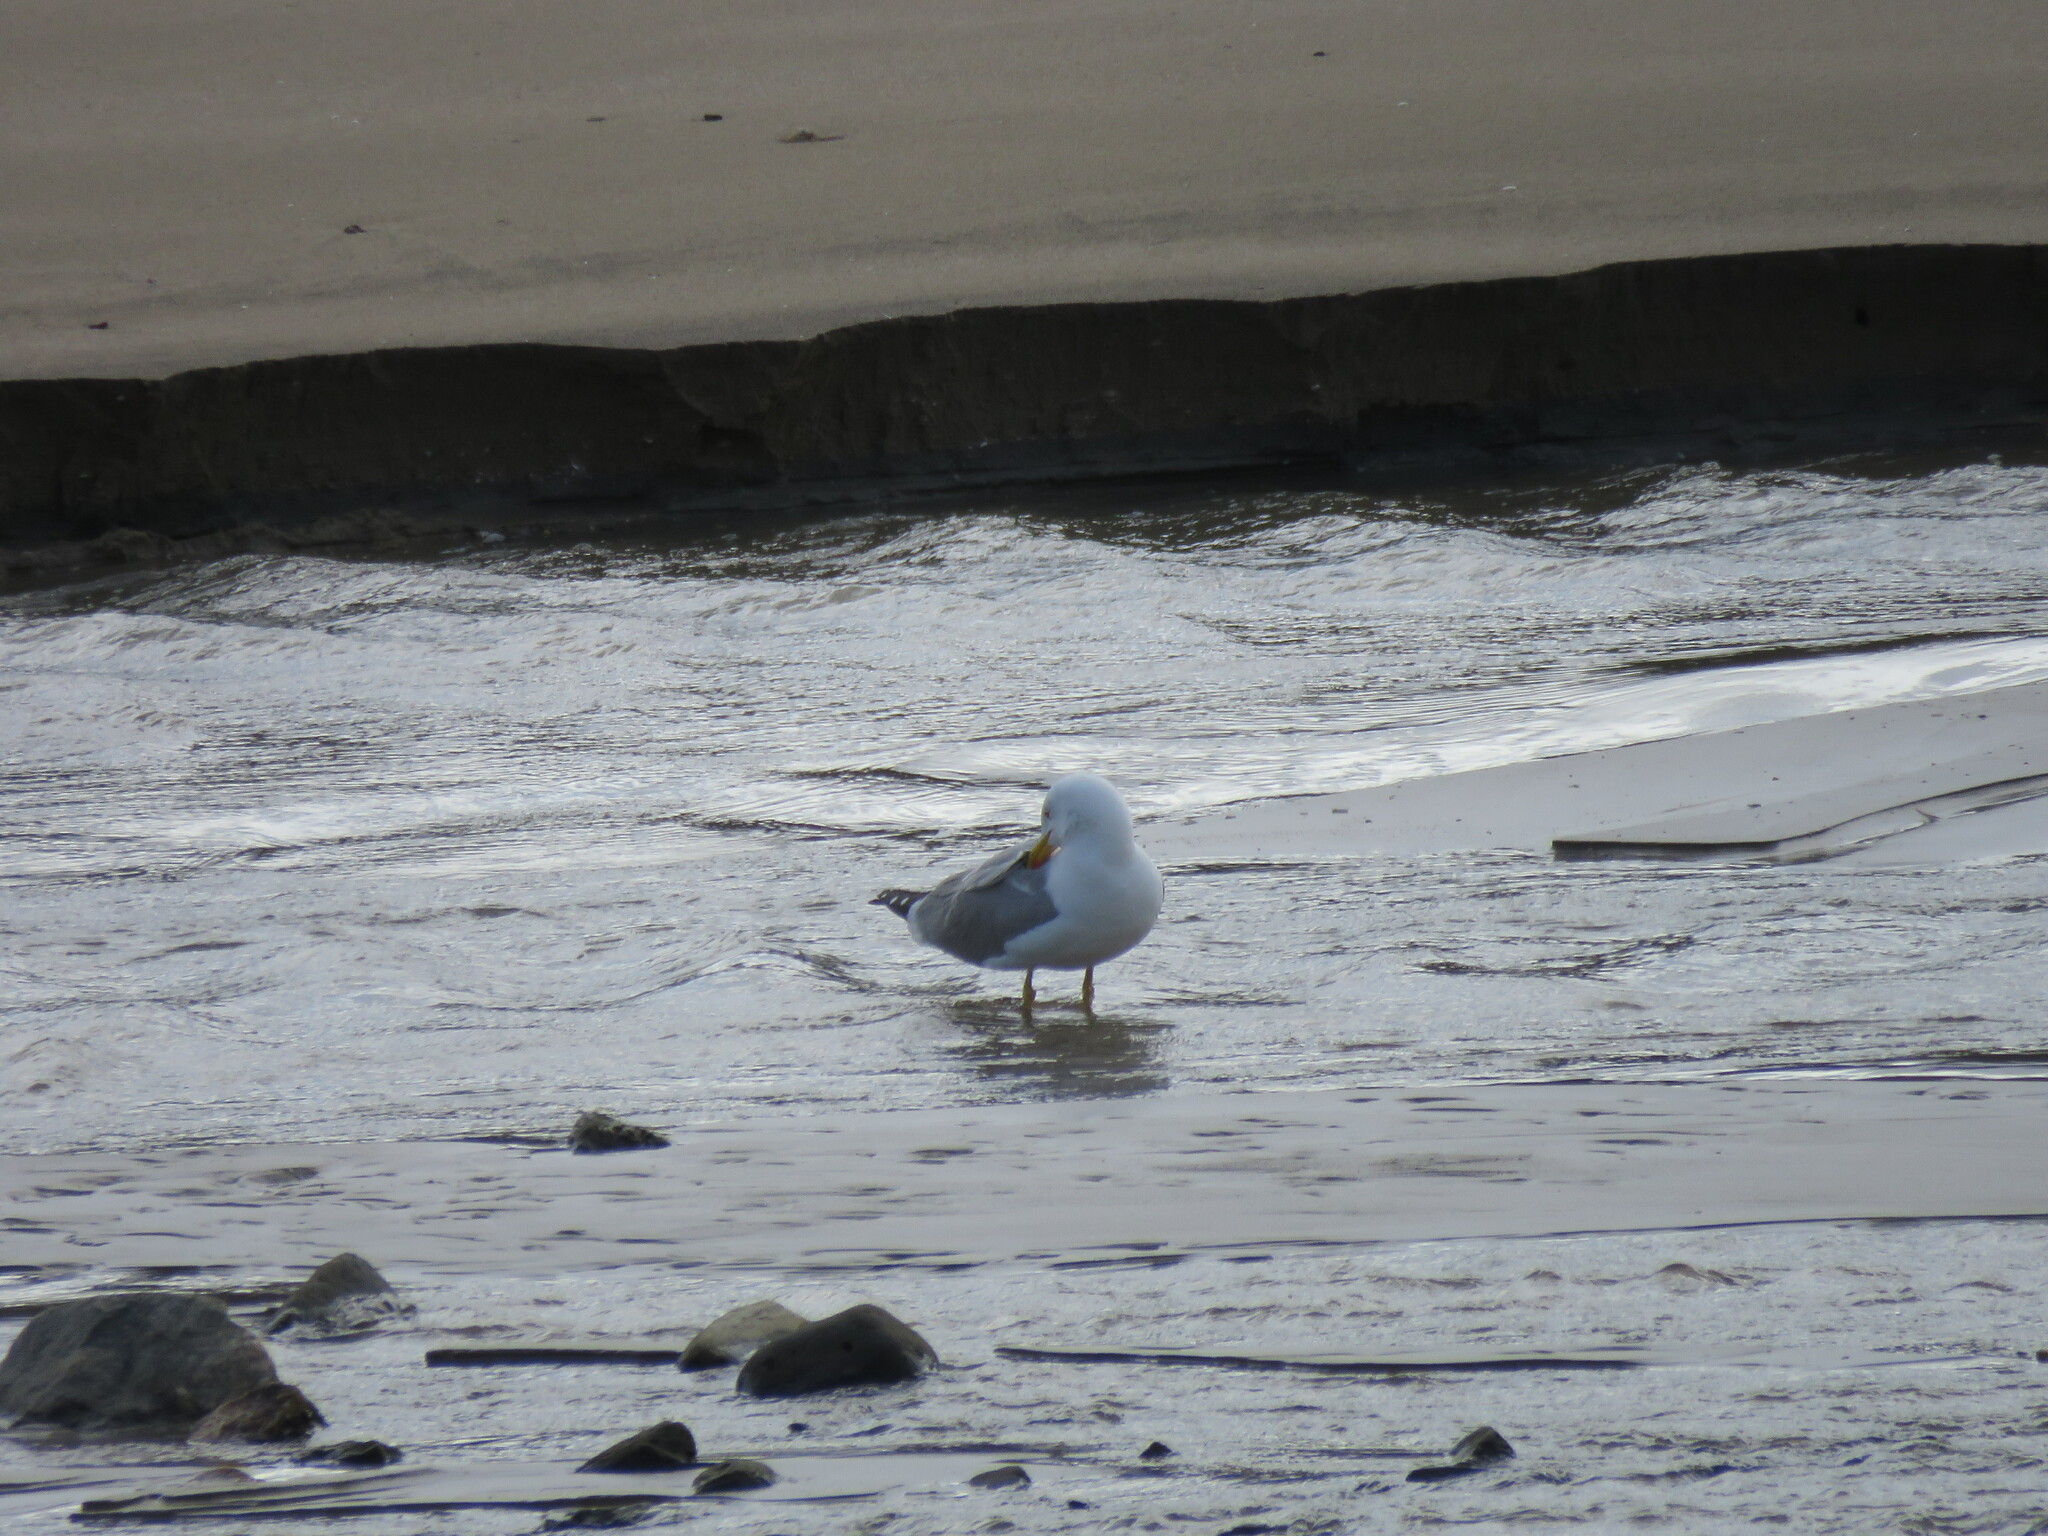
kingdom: Animalia
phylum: Chordata
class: Aves
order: Charadriiformes
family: Laridae
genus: Larus
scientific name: Larus michahellis
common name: Yellow-legged gull
